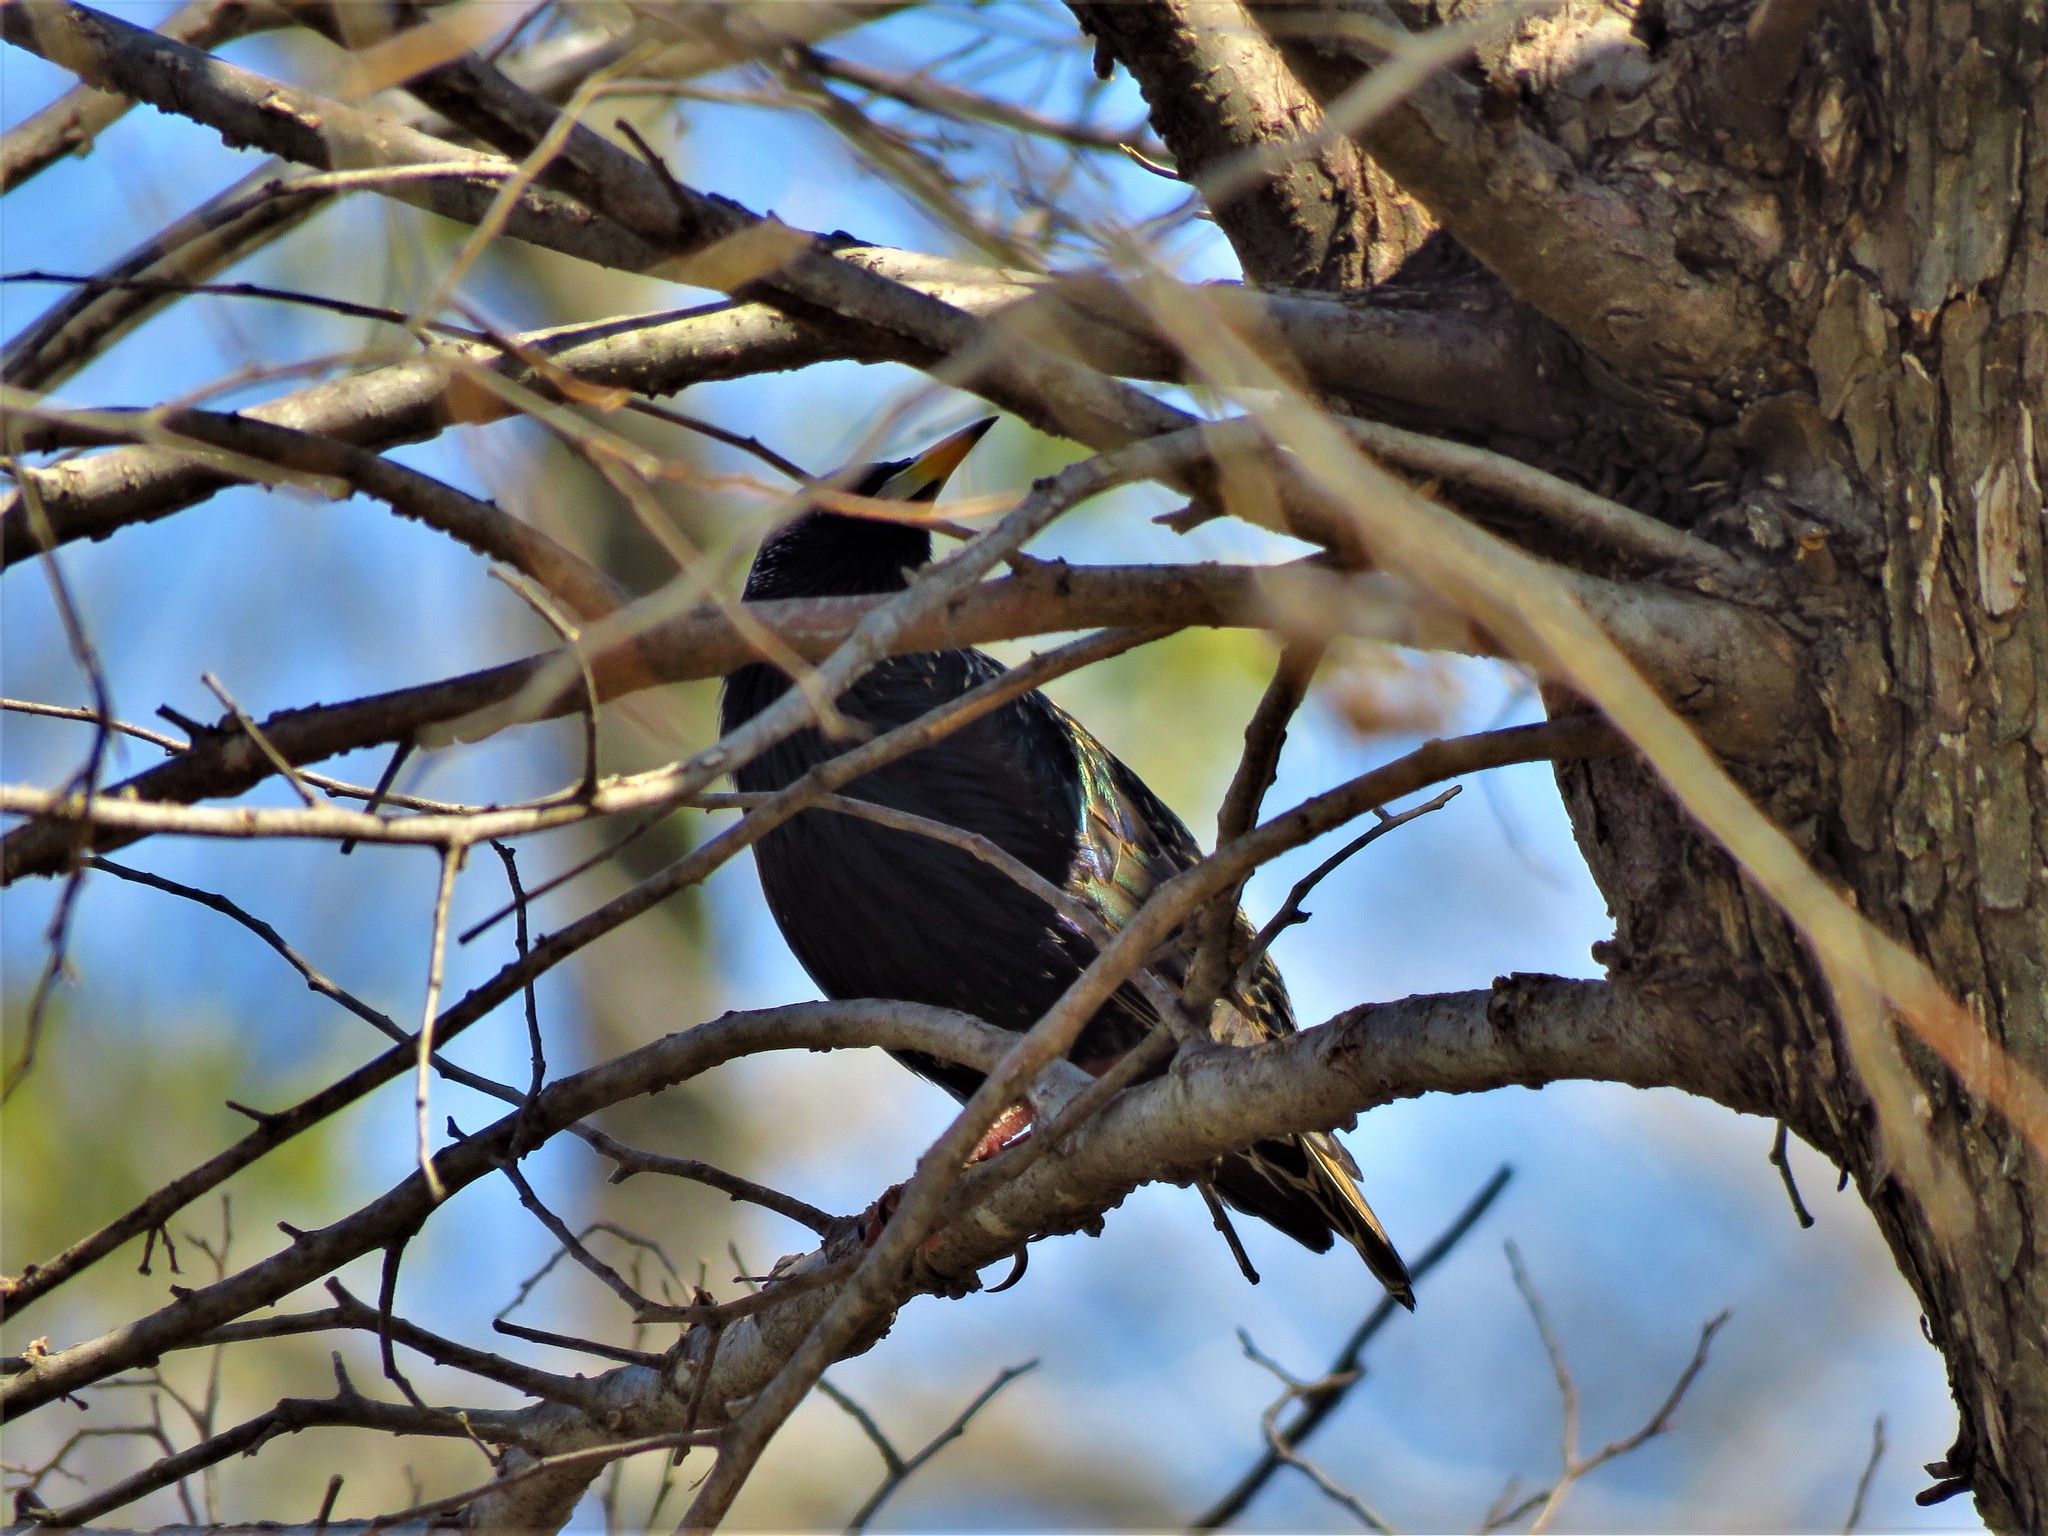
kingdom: Animalia
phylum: Chordata
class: Aves
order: Passeriformes
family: Sturnidae
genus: Sturnus
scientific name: Sturnus vulgaris
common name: Common starling
